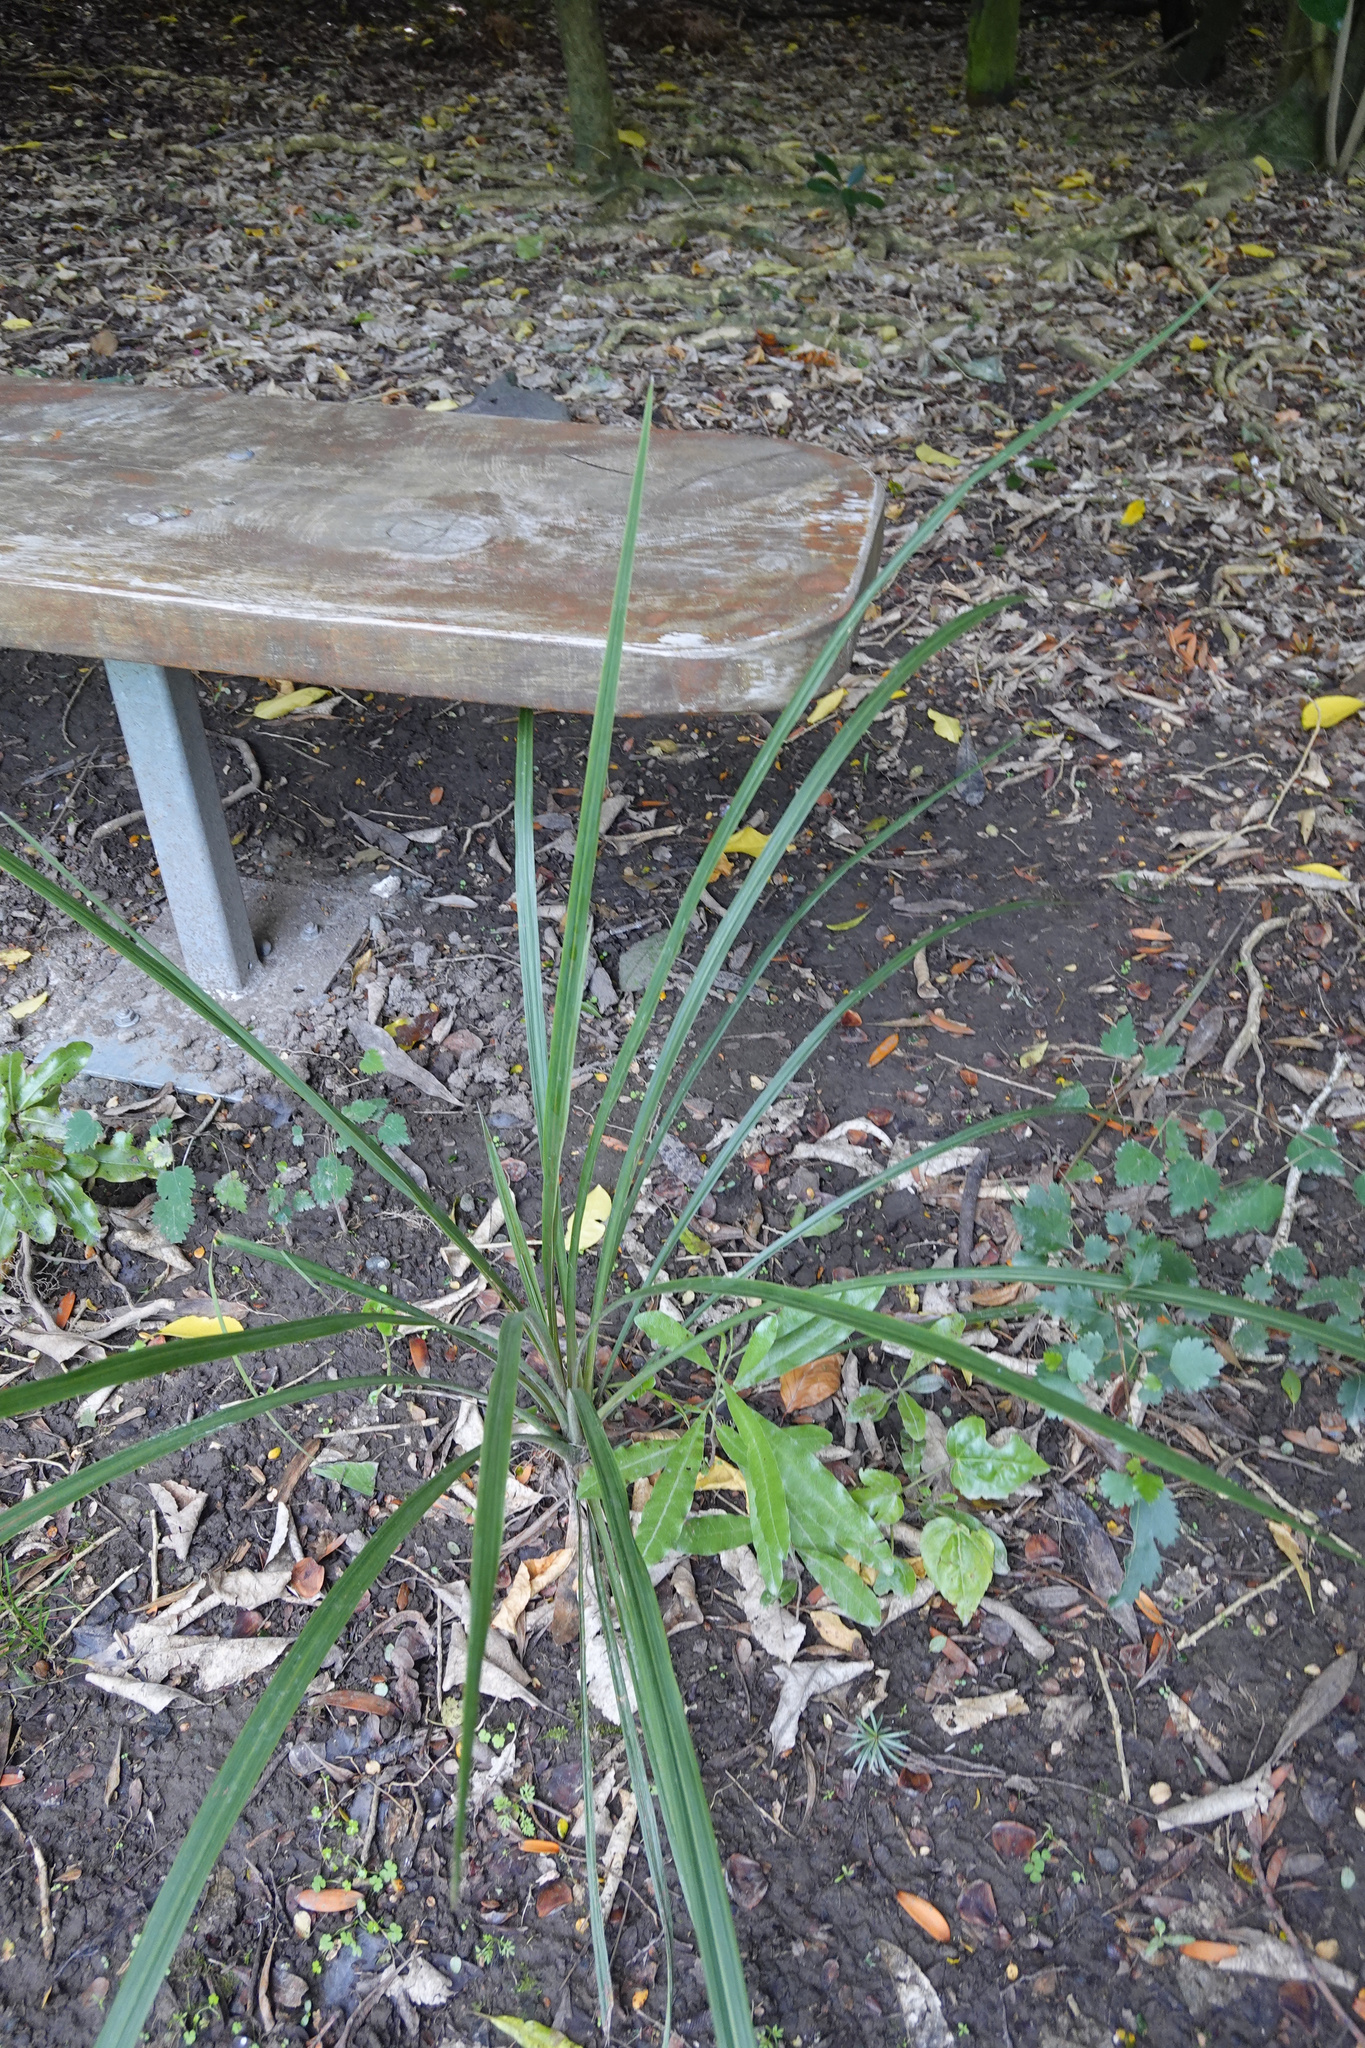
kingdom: Plantae
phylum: Tracheophyta
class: Liliopsida
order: Asparagales
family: Asparagaceae
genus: Cordyline
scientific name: Cordyline australis
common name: Cabbage-palm
